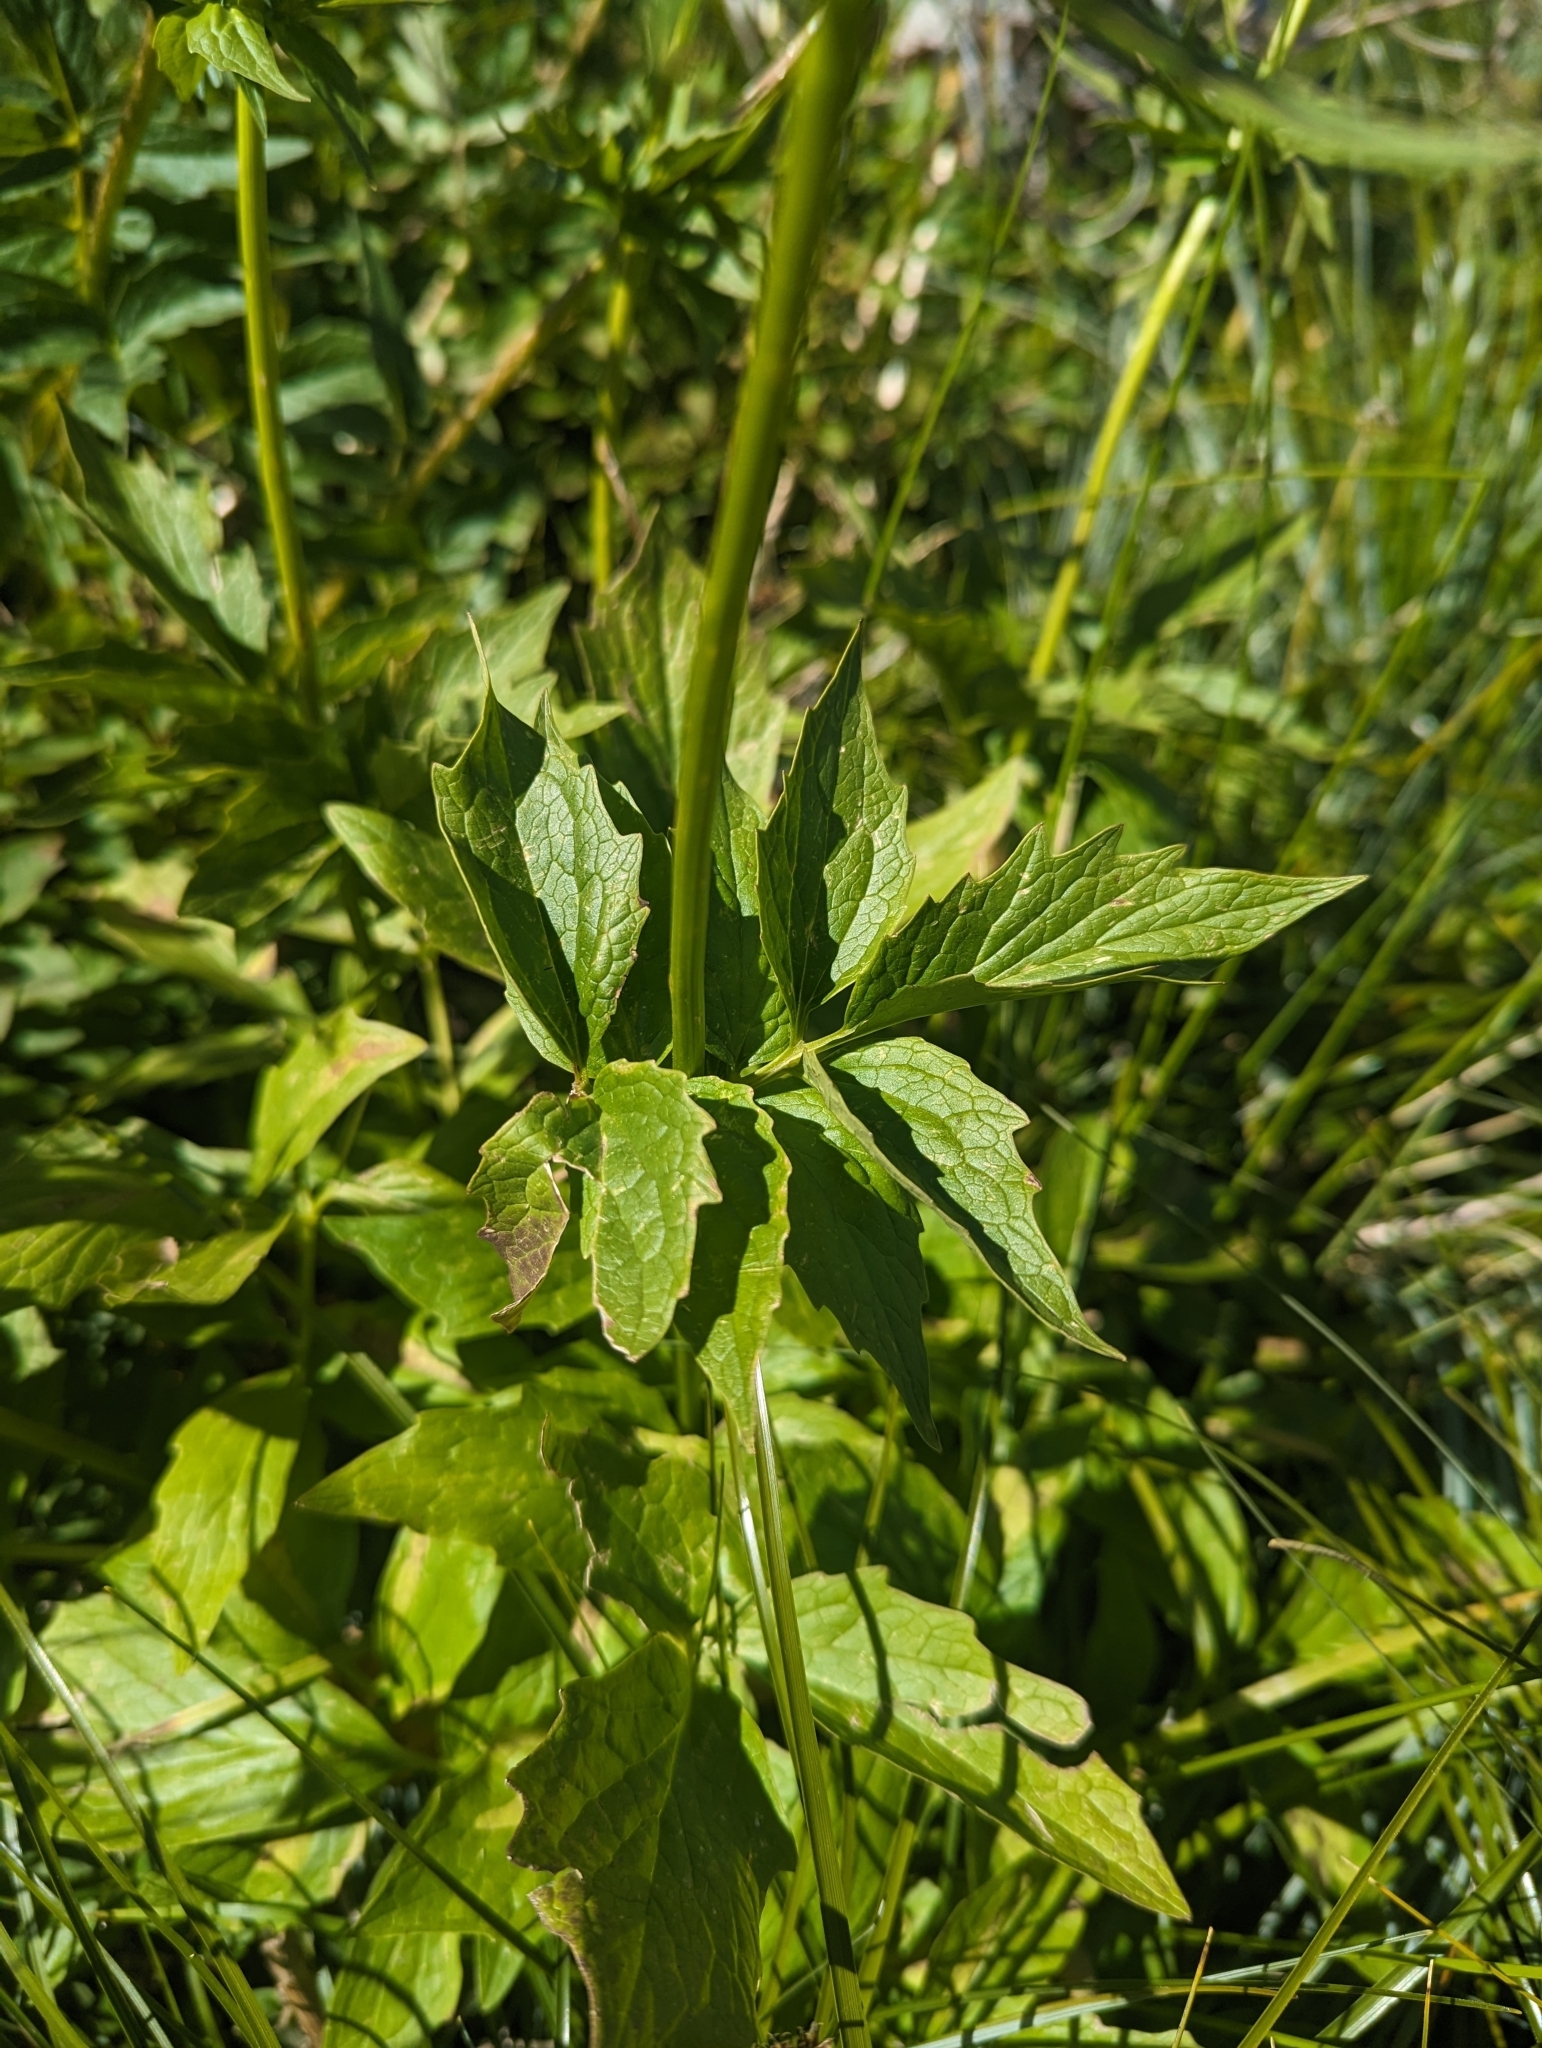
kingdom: Plantae
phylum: Tracheophyta
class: Magnoliopsida
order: Dipsacales
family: Caprifoliaceae
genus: Valeriana
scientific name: Valeriana sitchensis
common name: Pacific valerian
